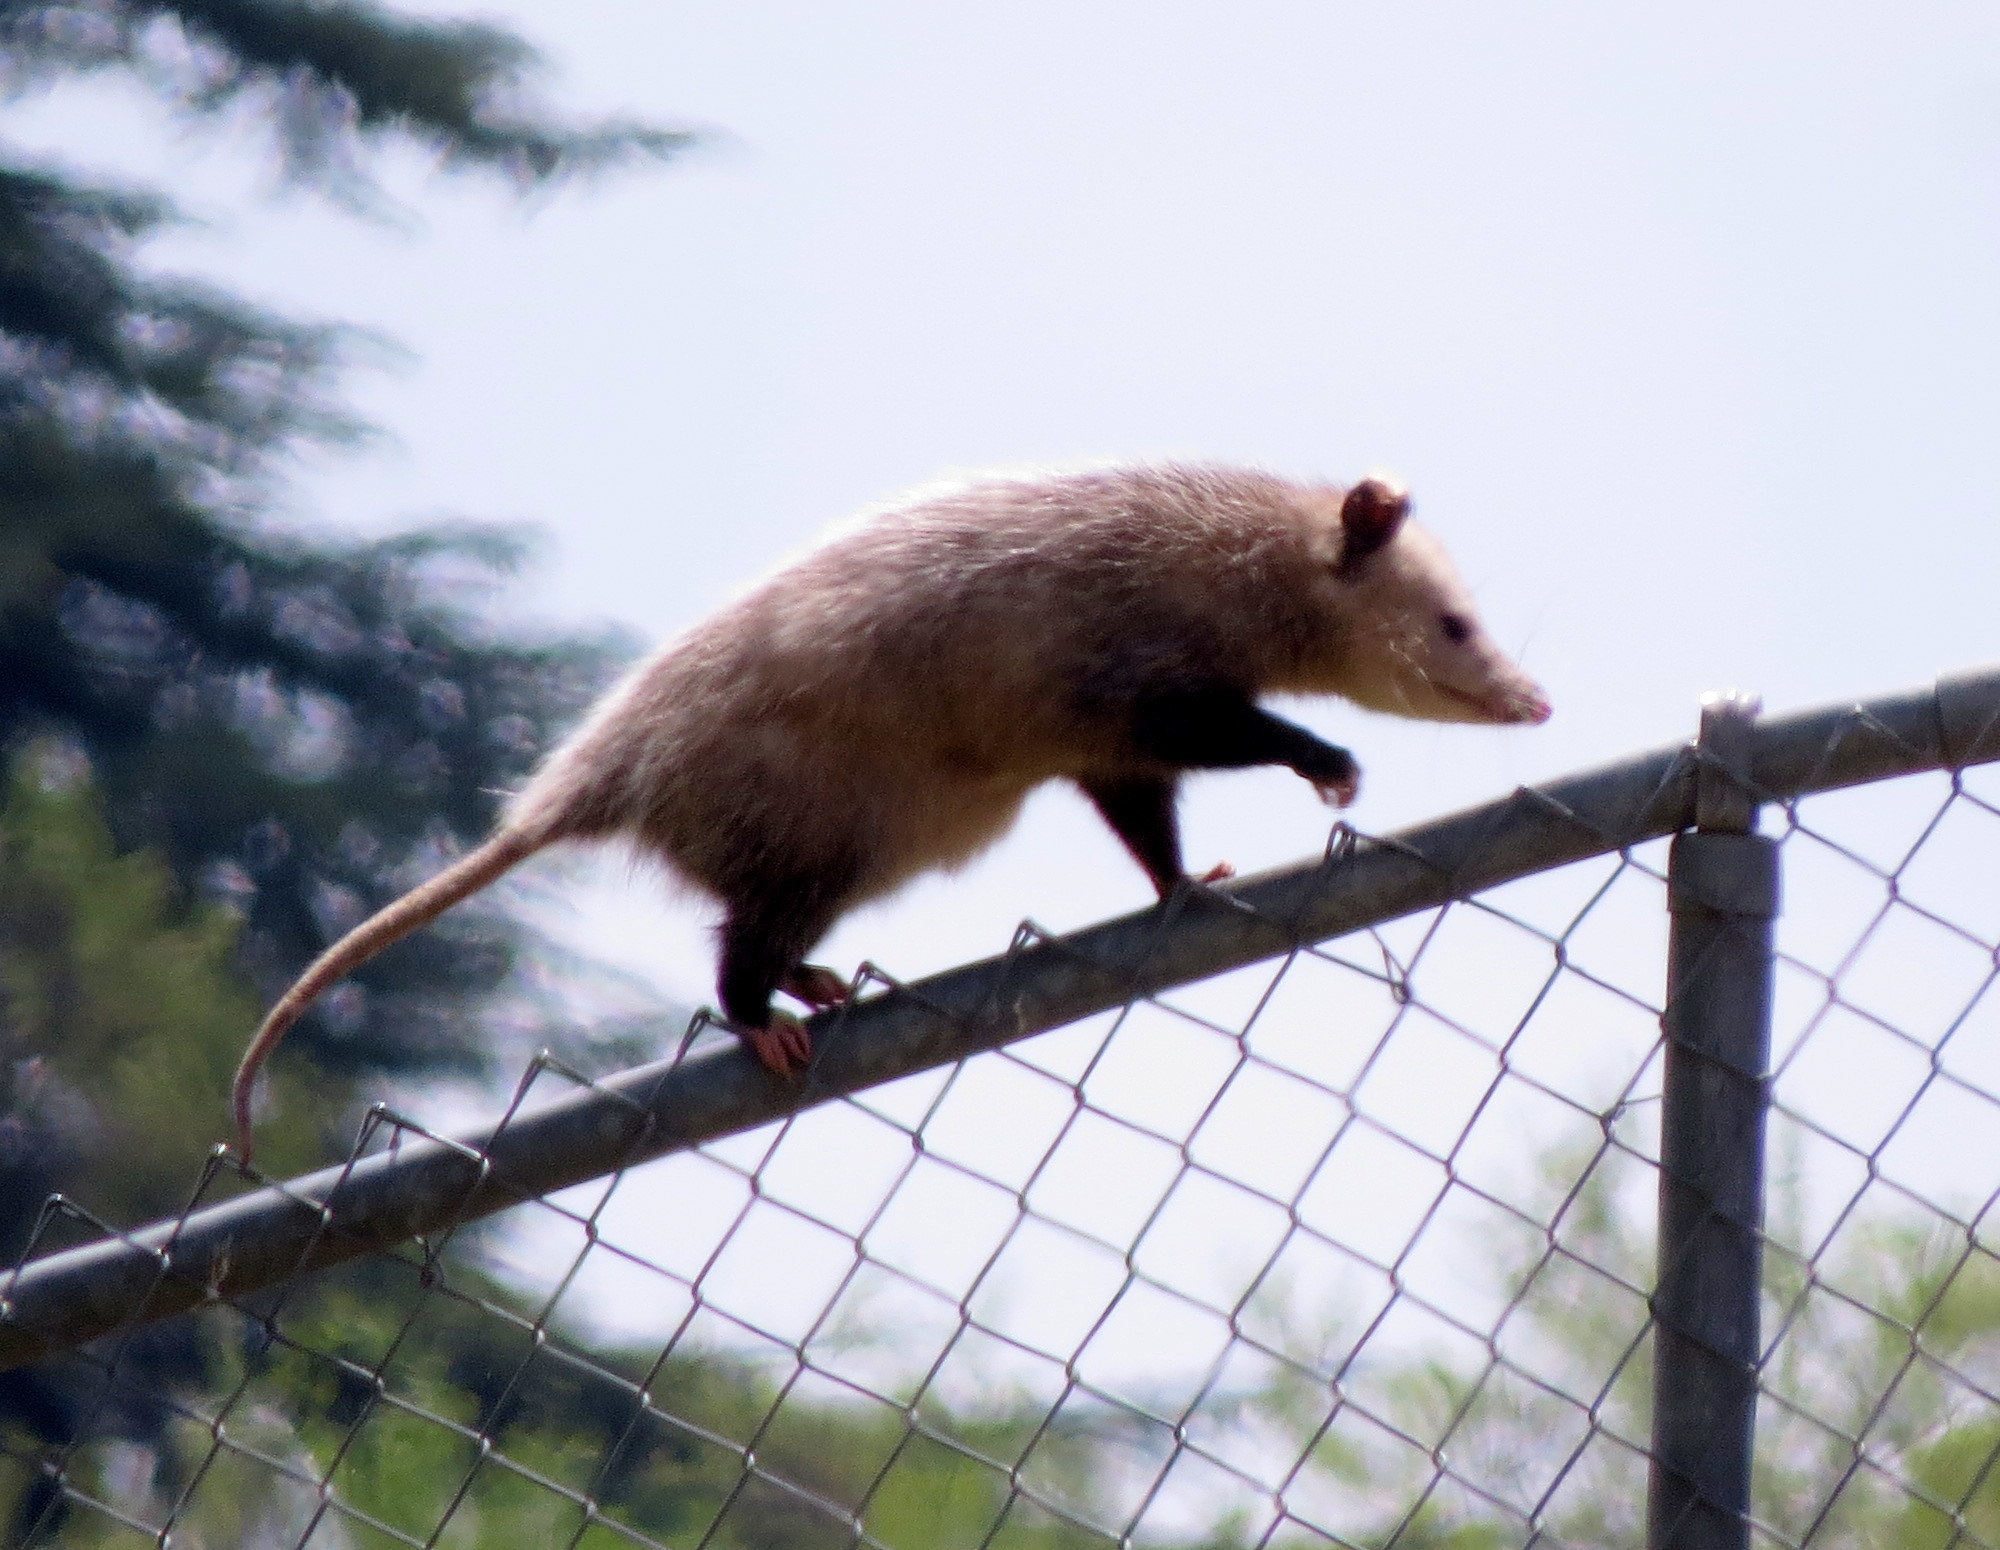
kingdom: Animalia
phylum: Chordata
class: Mammalia
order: Didelphimorphia
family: Didelphidae
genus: Didelphis
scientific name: Didelphis virginiana
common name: Virginia opossum
